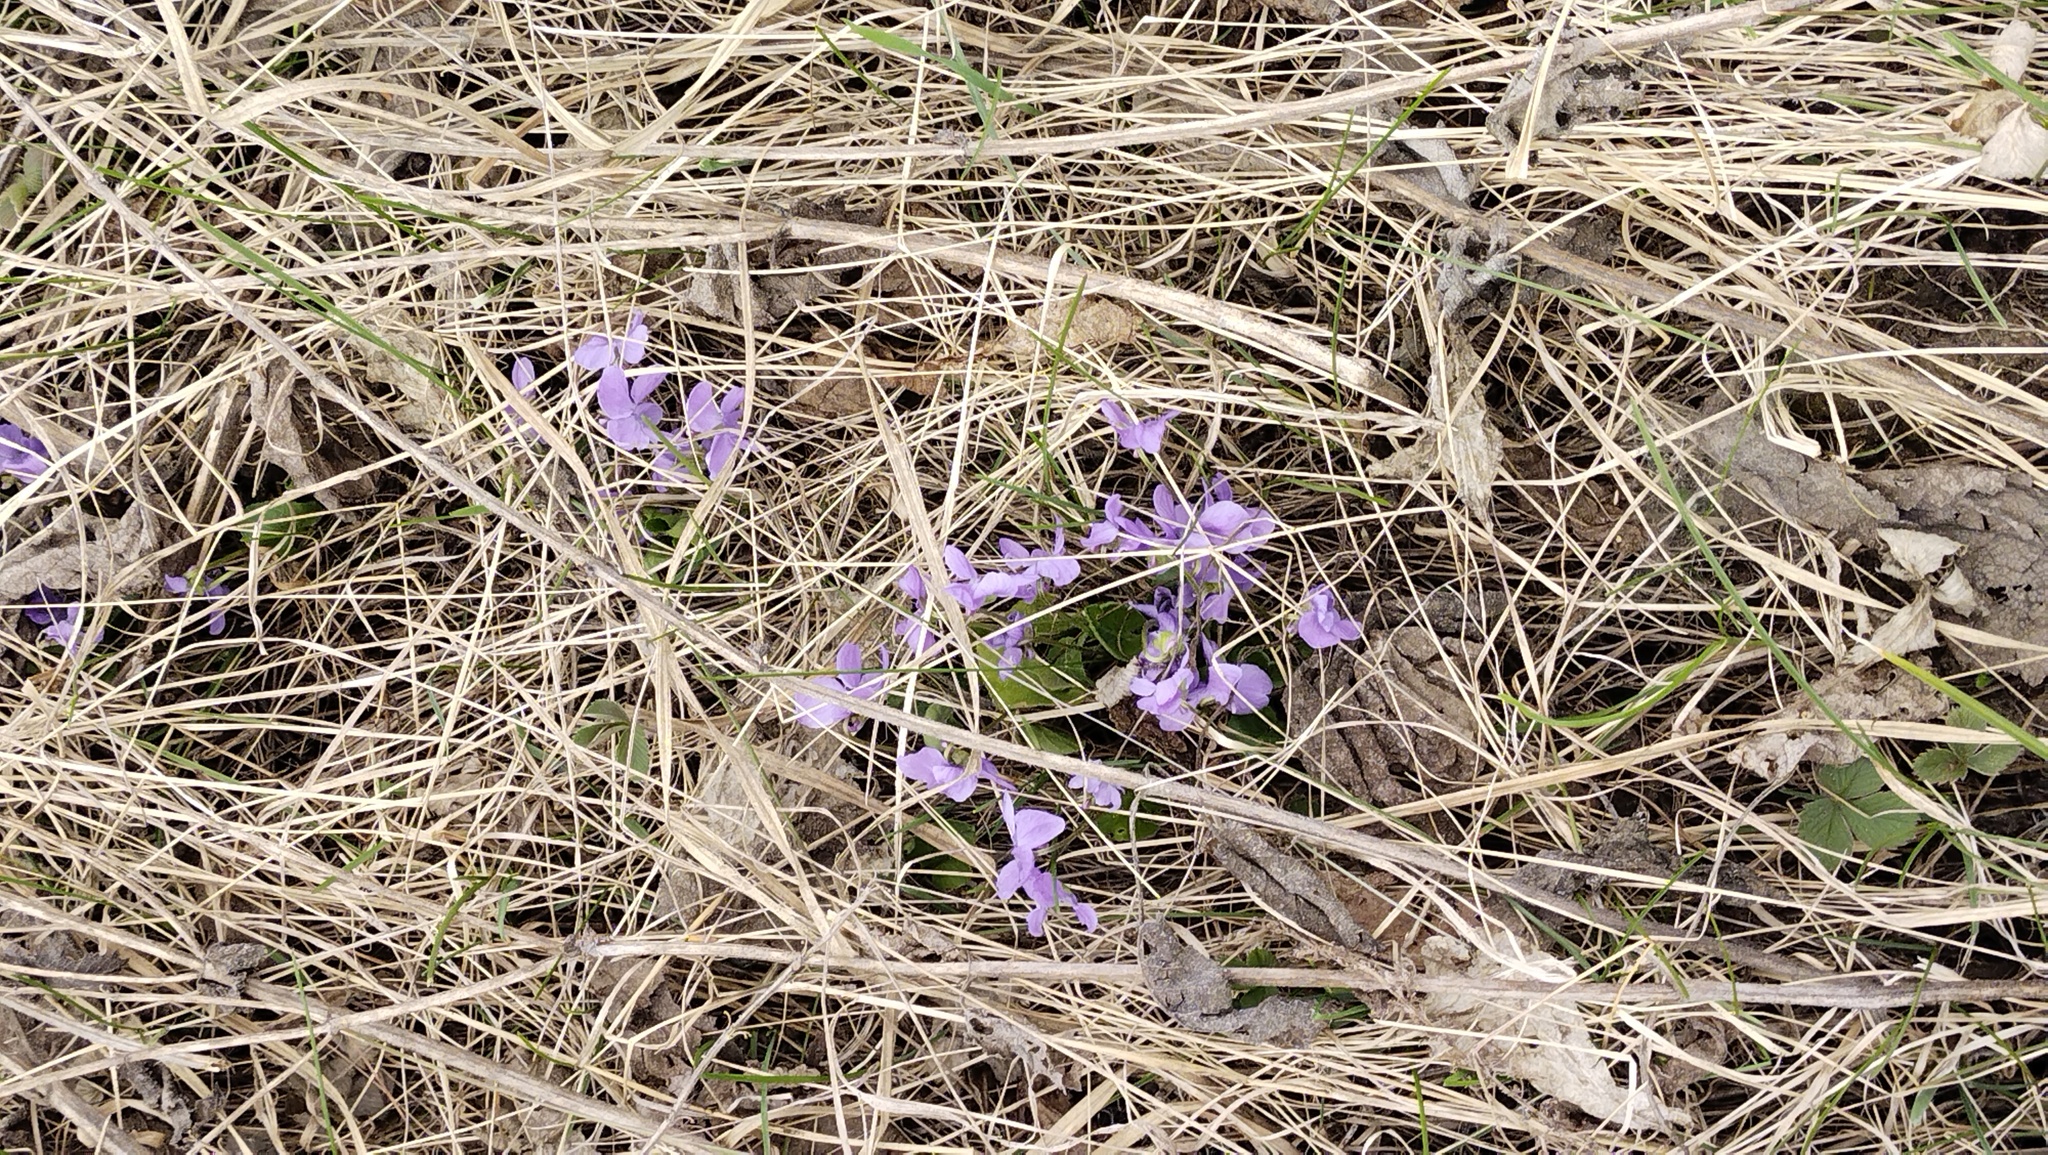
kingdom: Plantae
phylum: Tracheophyta
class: Magnoliopsida
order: Malpighiales
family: Violaceae
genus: Viola
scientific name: Viola hirta
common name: Hairy violet
